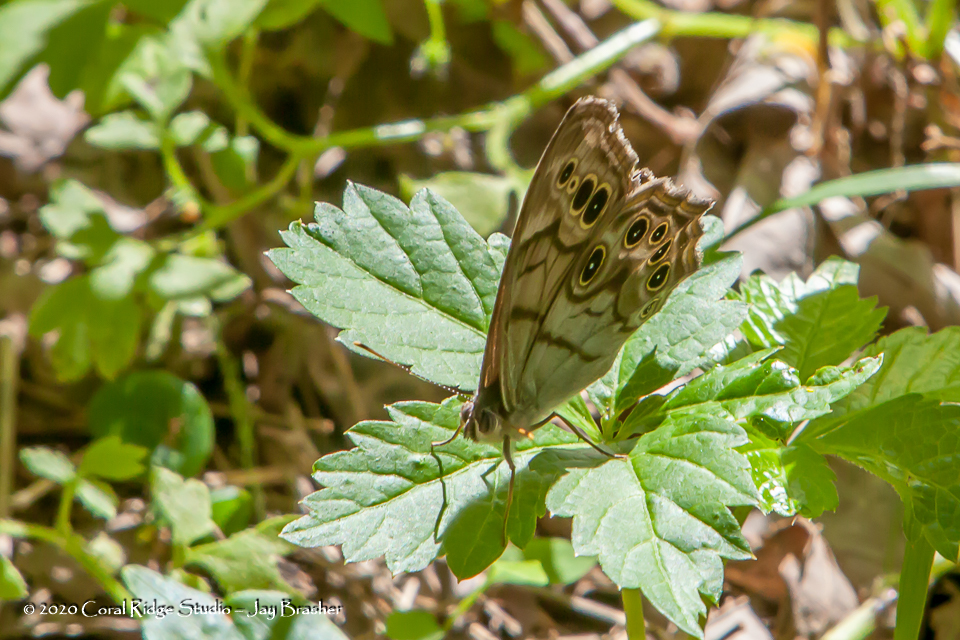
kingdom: Animalia
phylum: Arthropoda
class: Insecta
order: Lepidoptera
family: Nymphalidae
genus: Lethe
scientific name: Lethe anthedon
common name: Northern pearly-eye
